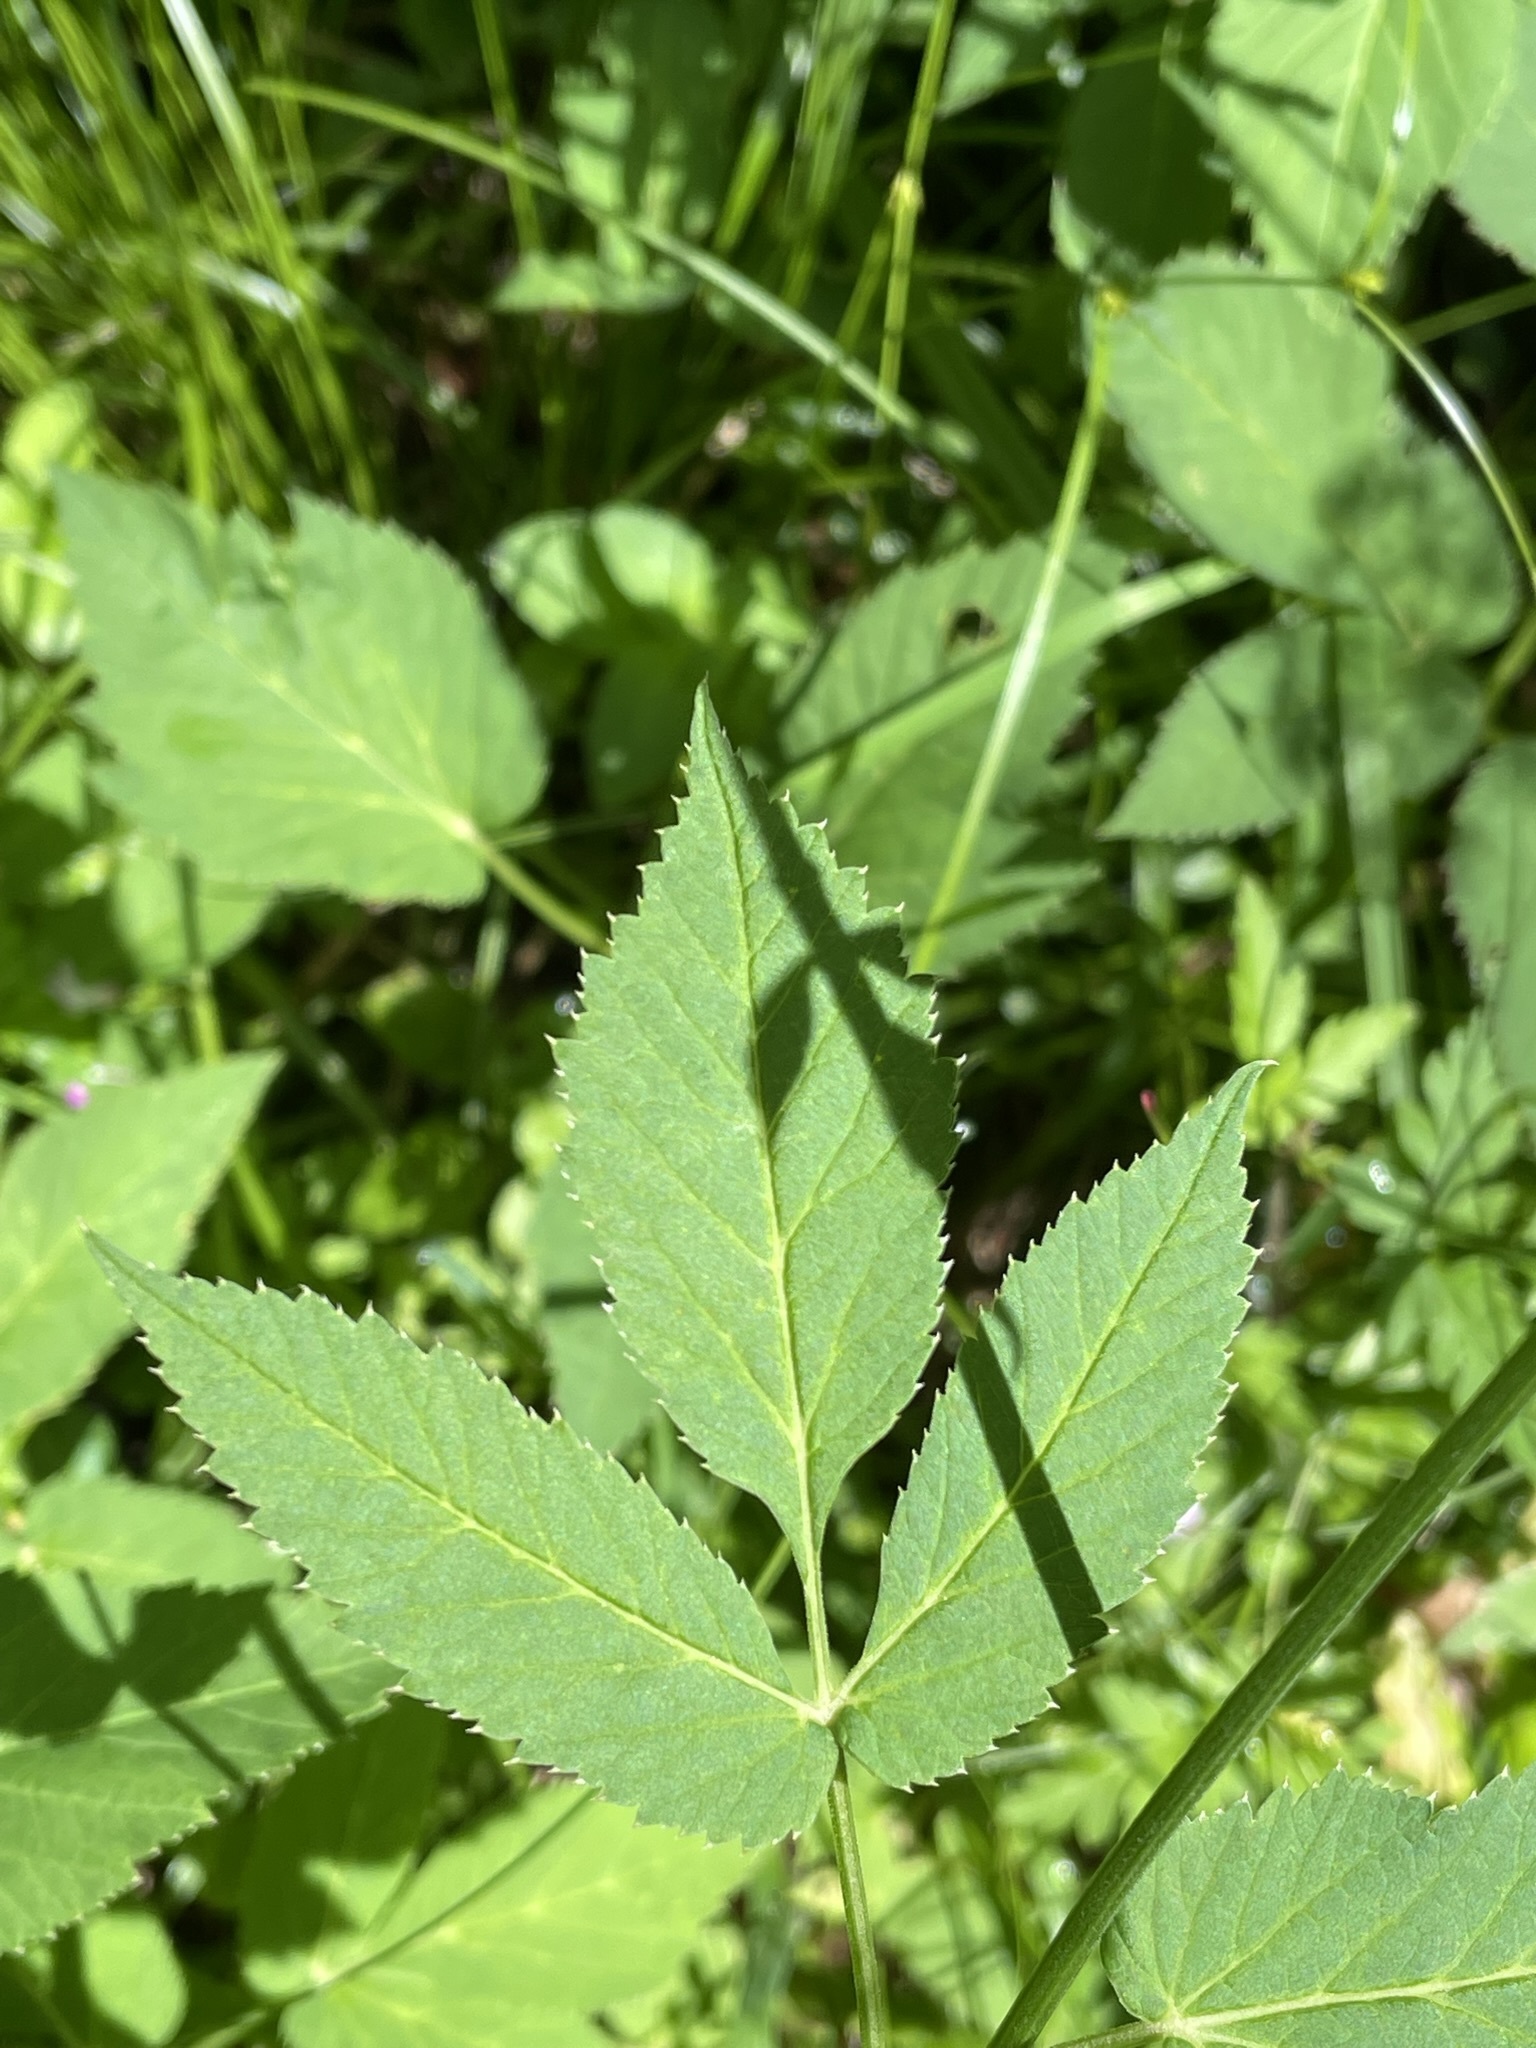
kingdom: Plantae
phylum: Tracheophyta
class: Magnoliopsida
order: Apiales
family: Apiaceae
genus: Aegopodium
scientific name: Aegopodium podagraria
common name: Ground-elder
